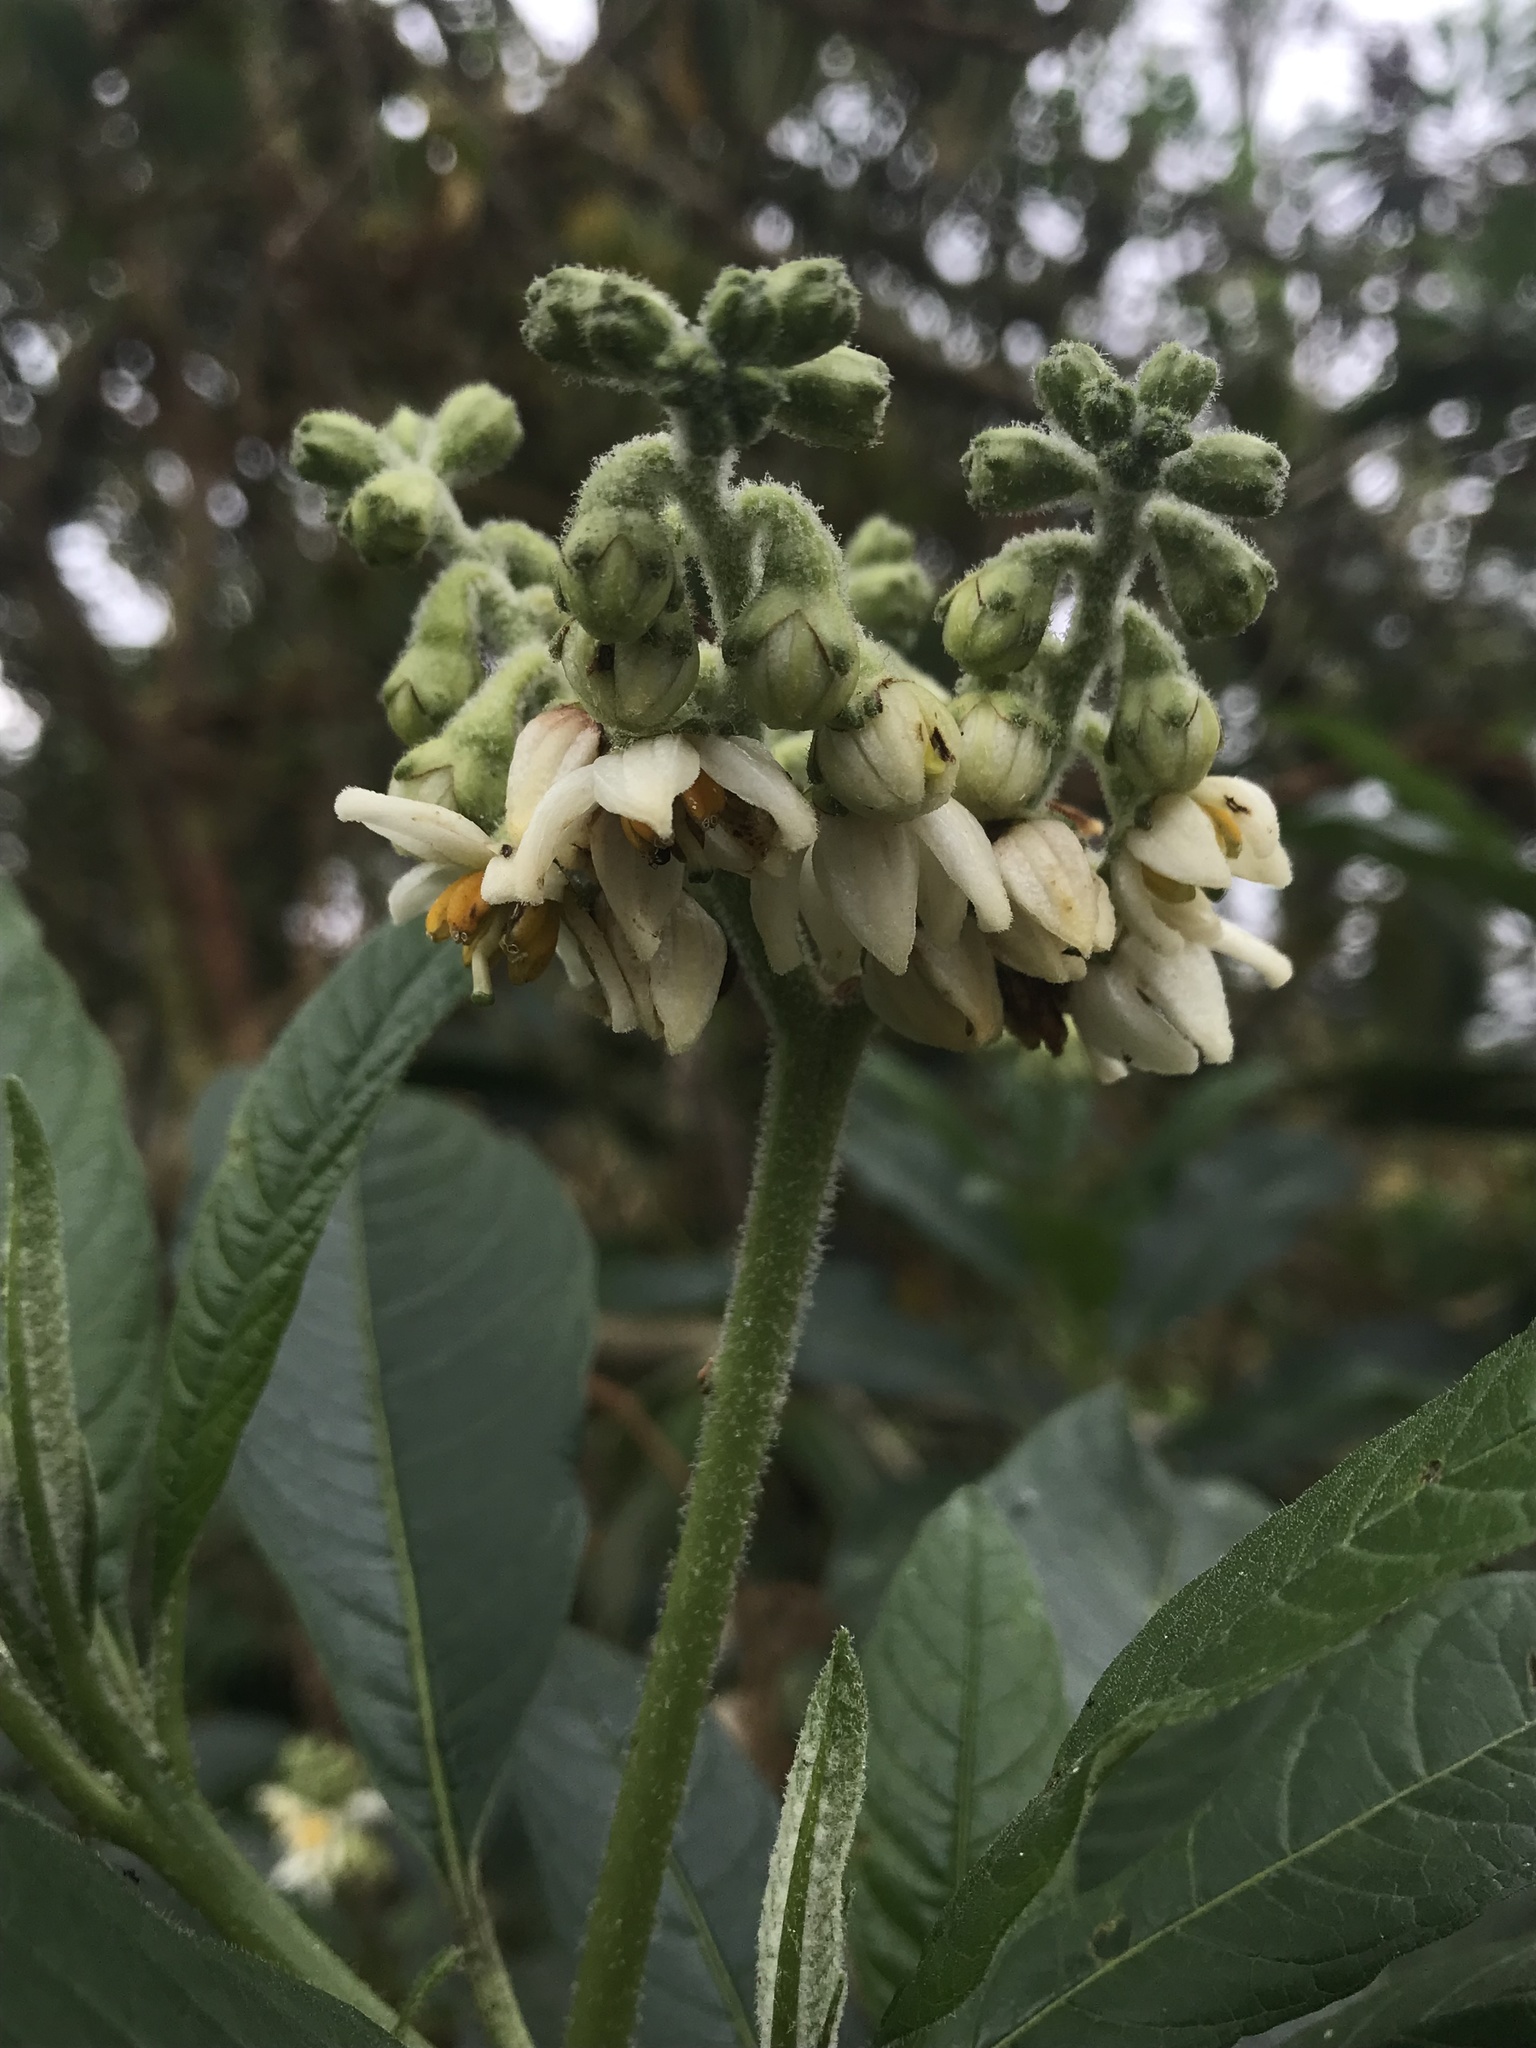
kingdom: Plantae
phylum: Tracheophyta
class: Magnoliopsida
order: Solanales
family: Solanaceae
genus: Solanum
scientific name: Solanum oblongifolium
